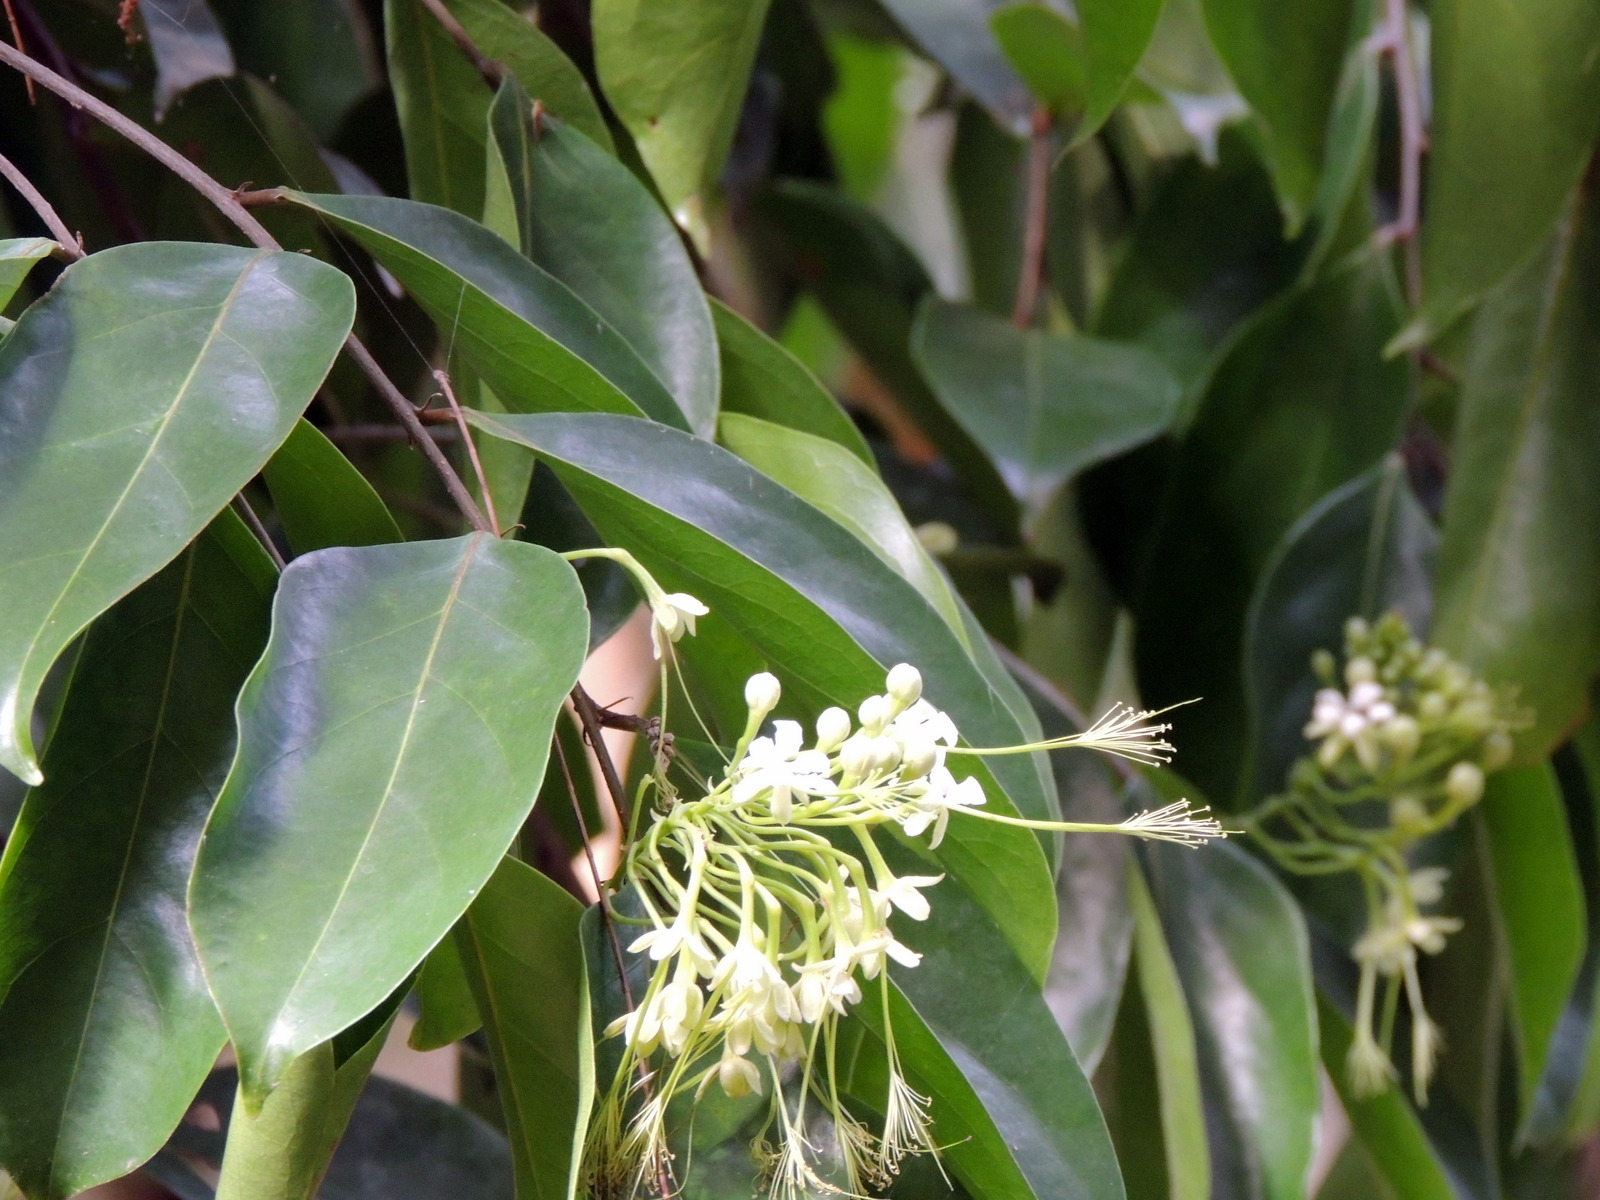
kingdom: Plantae
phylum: Tracheophyta
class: Magnoliopsida
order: Malpighiales
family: Chrysobalanaceae
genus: Dactyladenia
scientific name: Dactyladenia barteri
